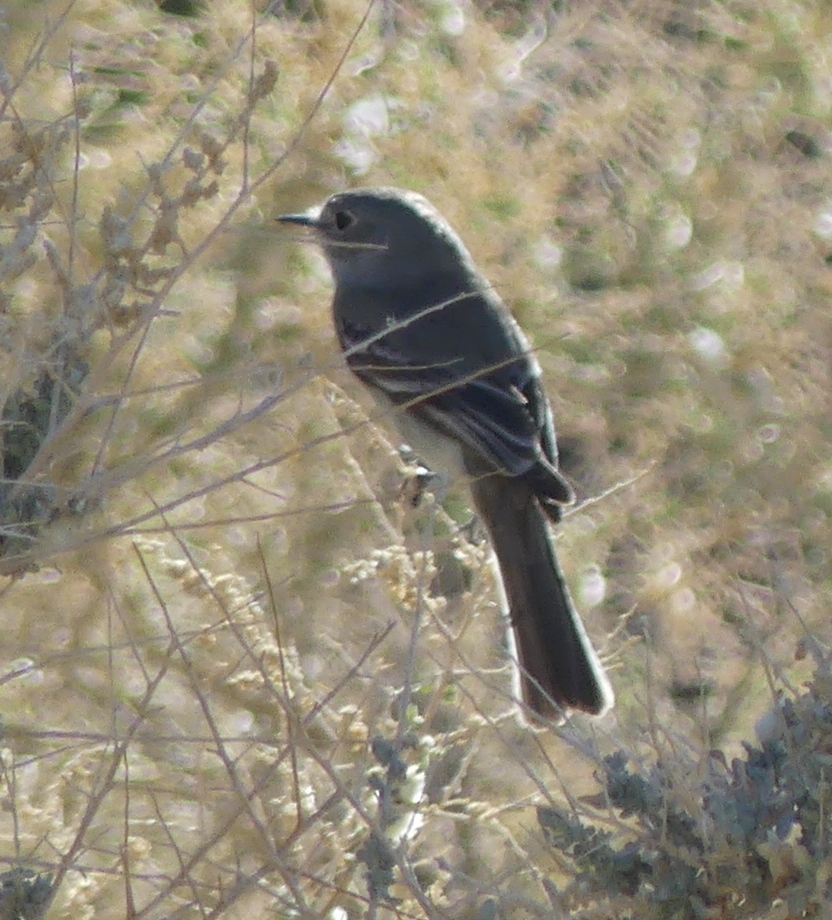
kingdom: Animalia
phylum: Chordata
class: Aves
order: Passeriformes
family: Tyrannidae
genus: Empidonax
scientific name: Empidonax wrightii
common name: Gray flycatcher
